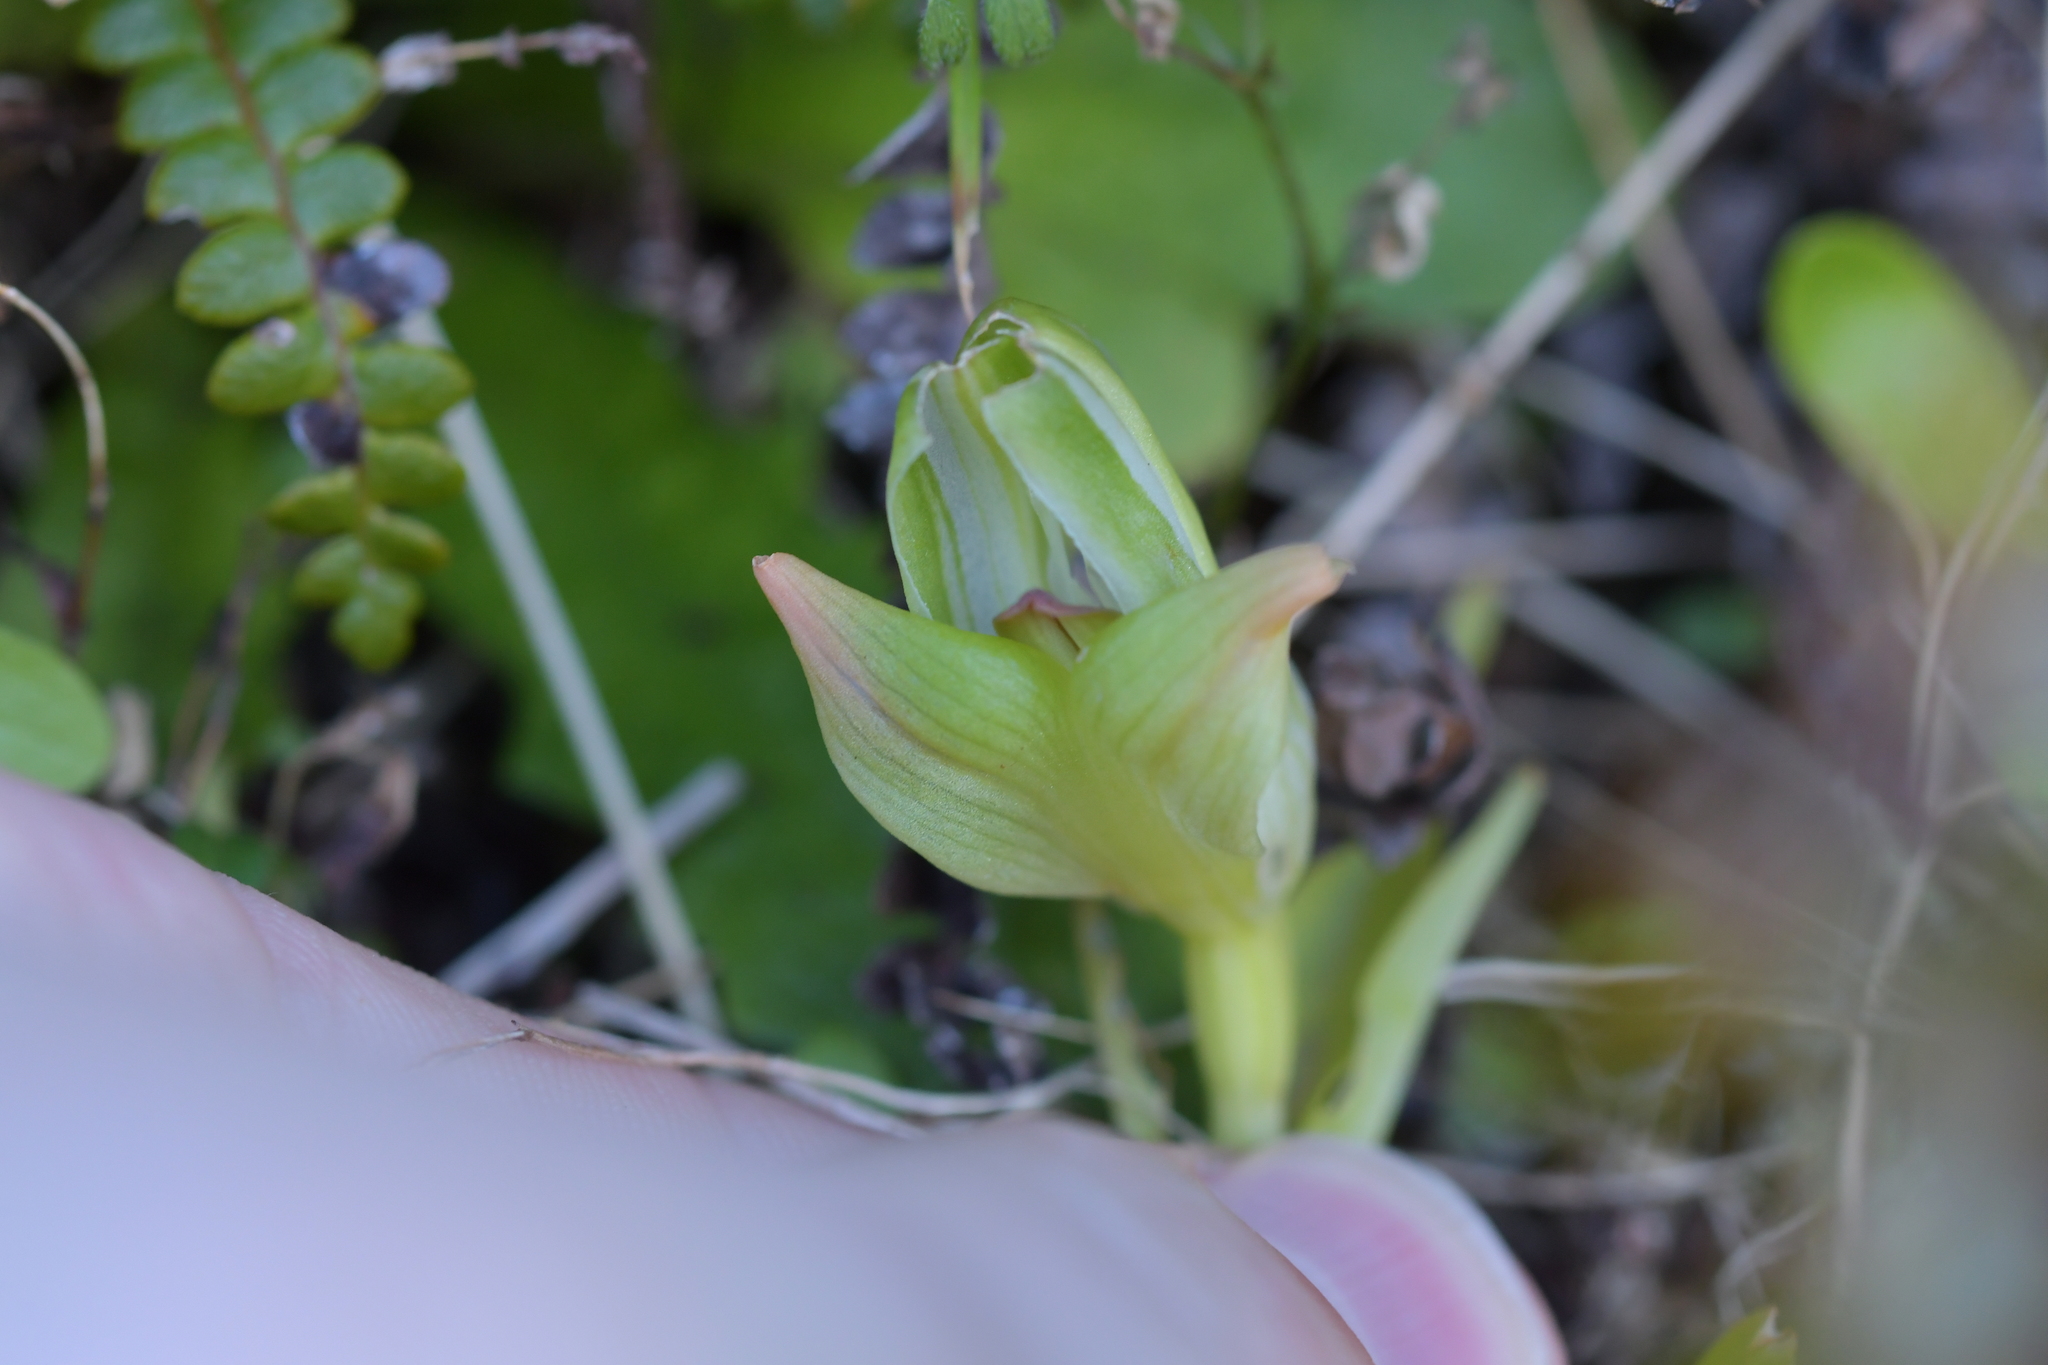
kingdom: Plantae
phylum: Tracheophyta
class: Liliopsida
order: Asparagales
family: Orchidaceae
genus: Pterostylis
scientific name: Pterostylis banksii
